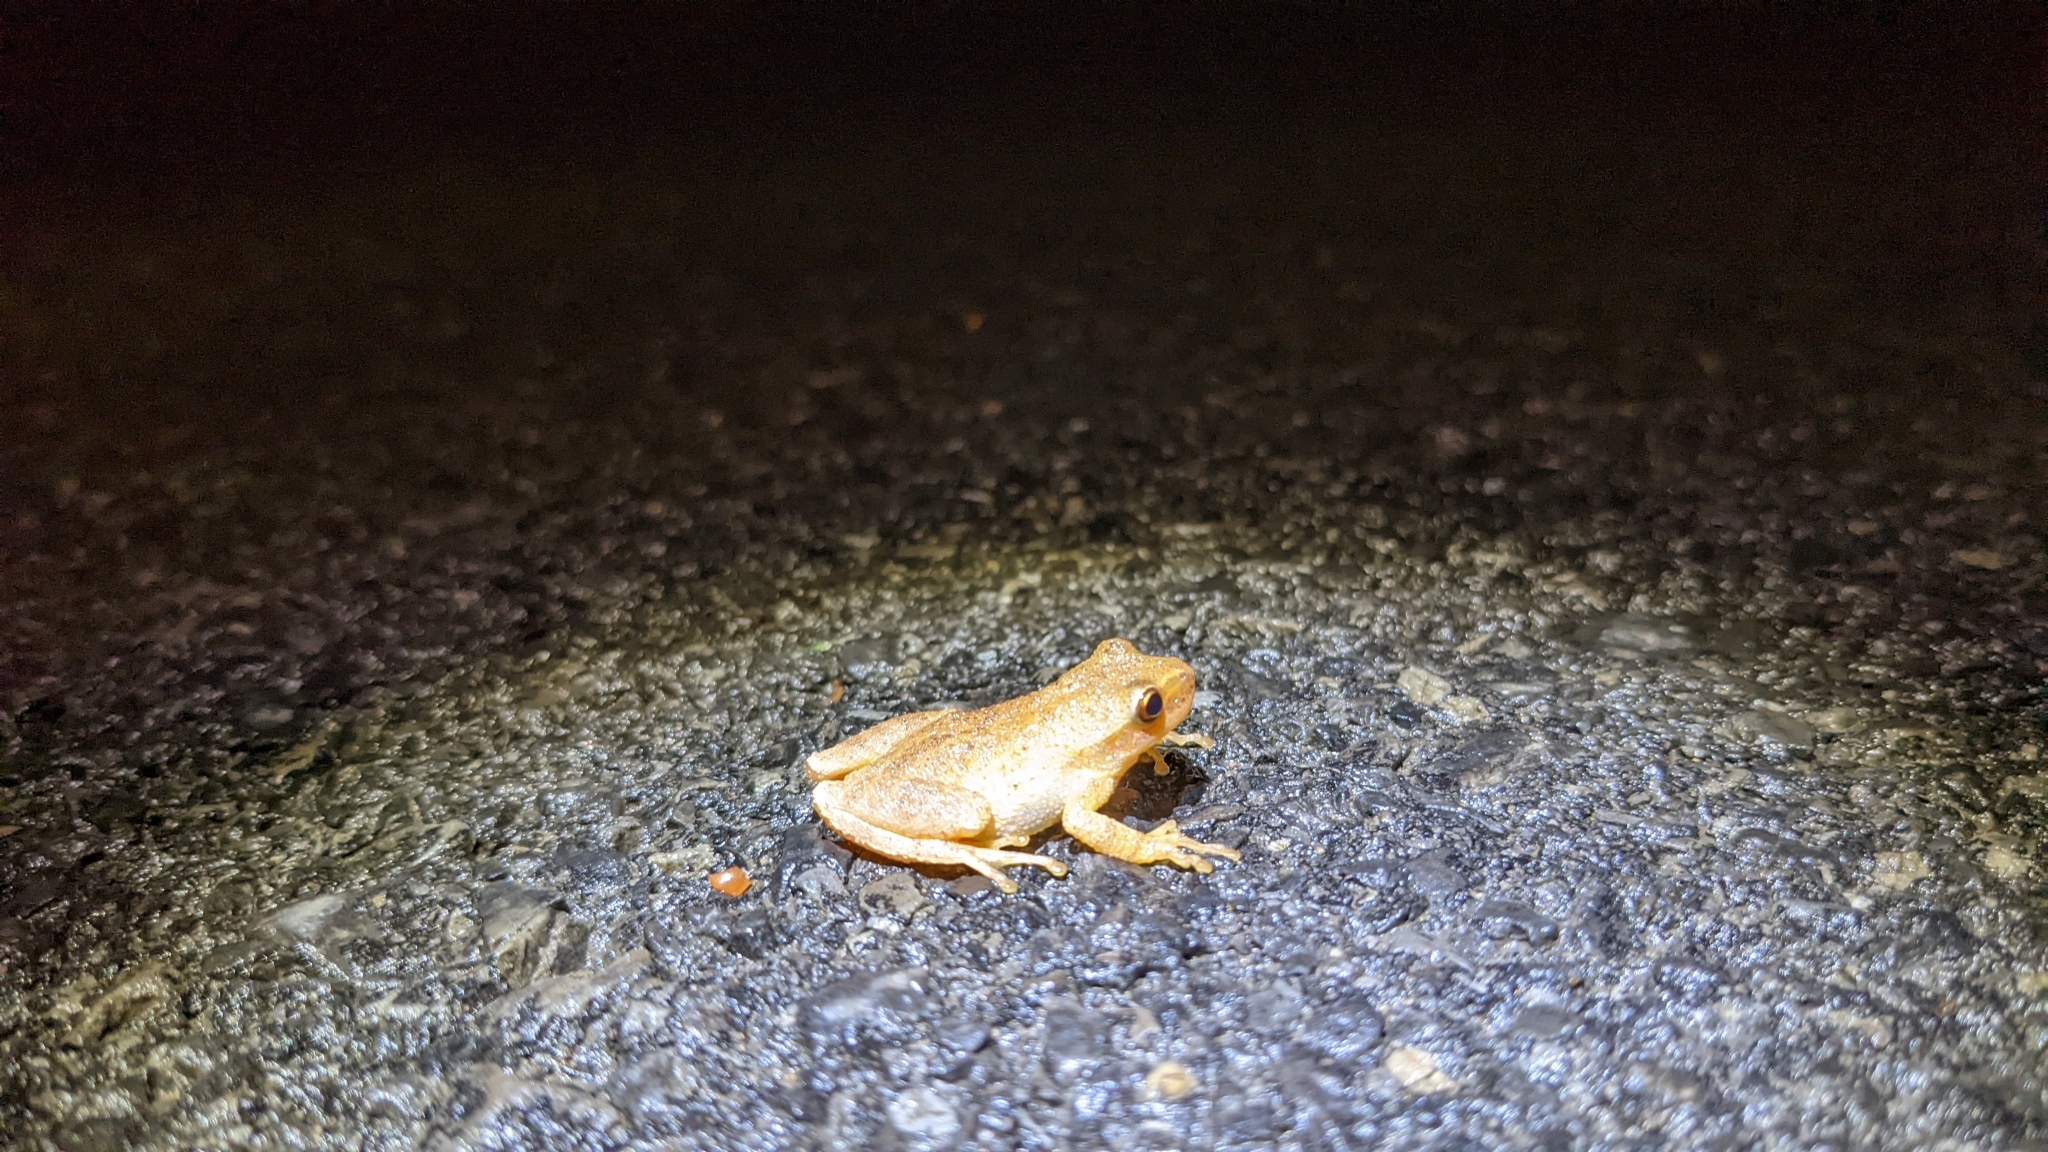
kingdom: Animalia
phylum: Chordata
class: Amphibia
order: Anura
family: Hylidae
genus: Pseudacris
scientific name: Pseudacris crucifer
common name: Spring peeper
